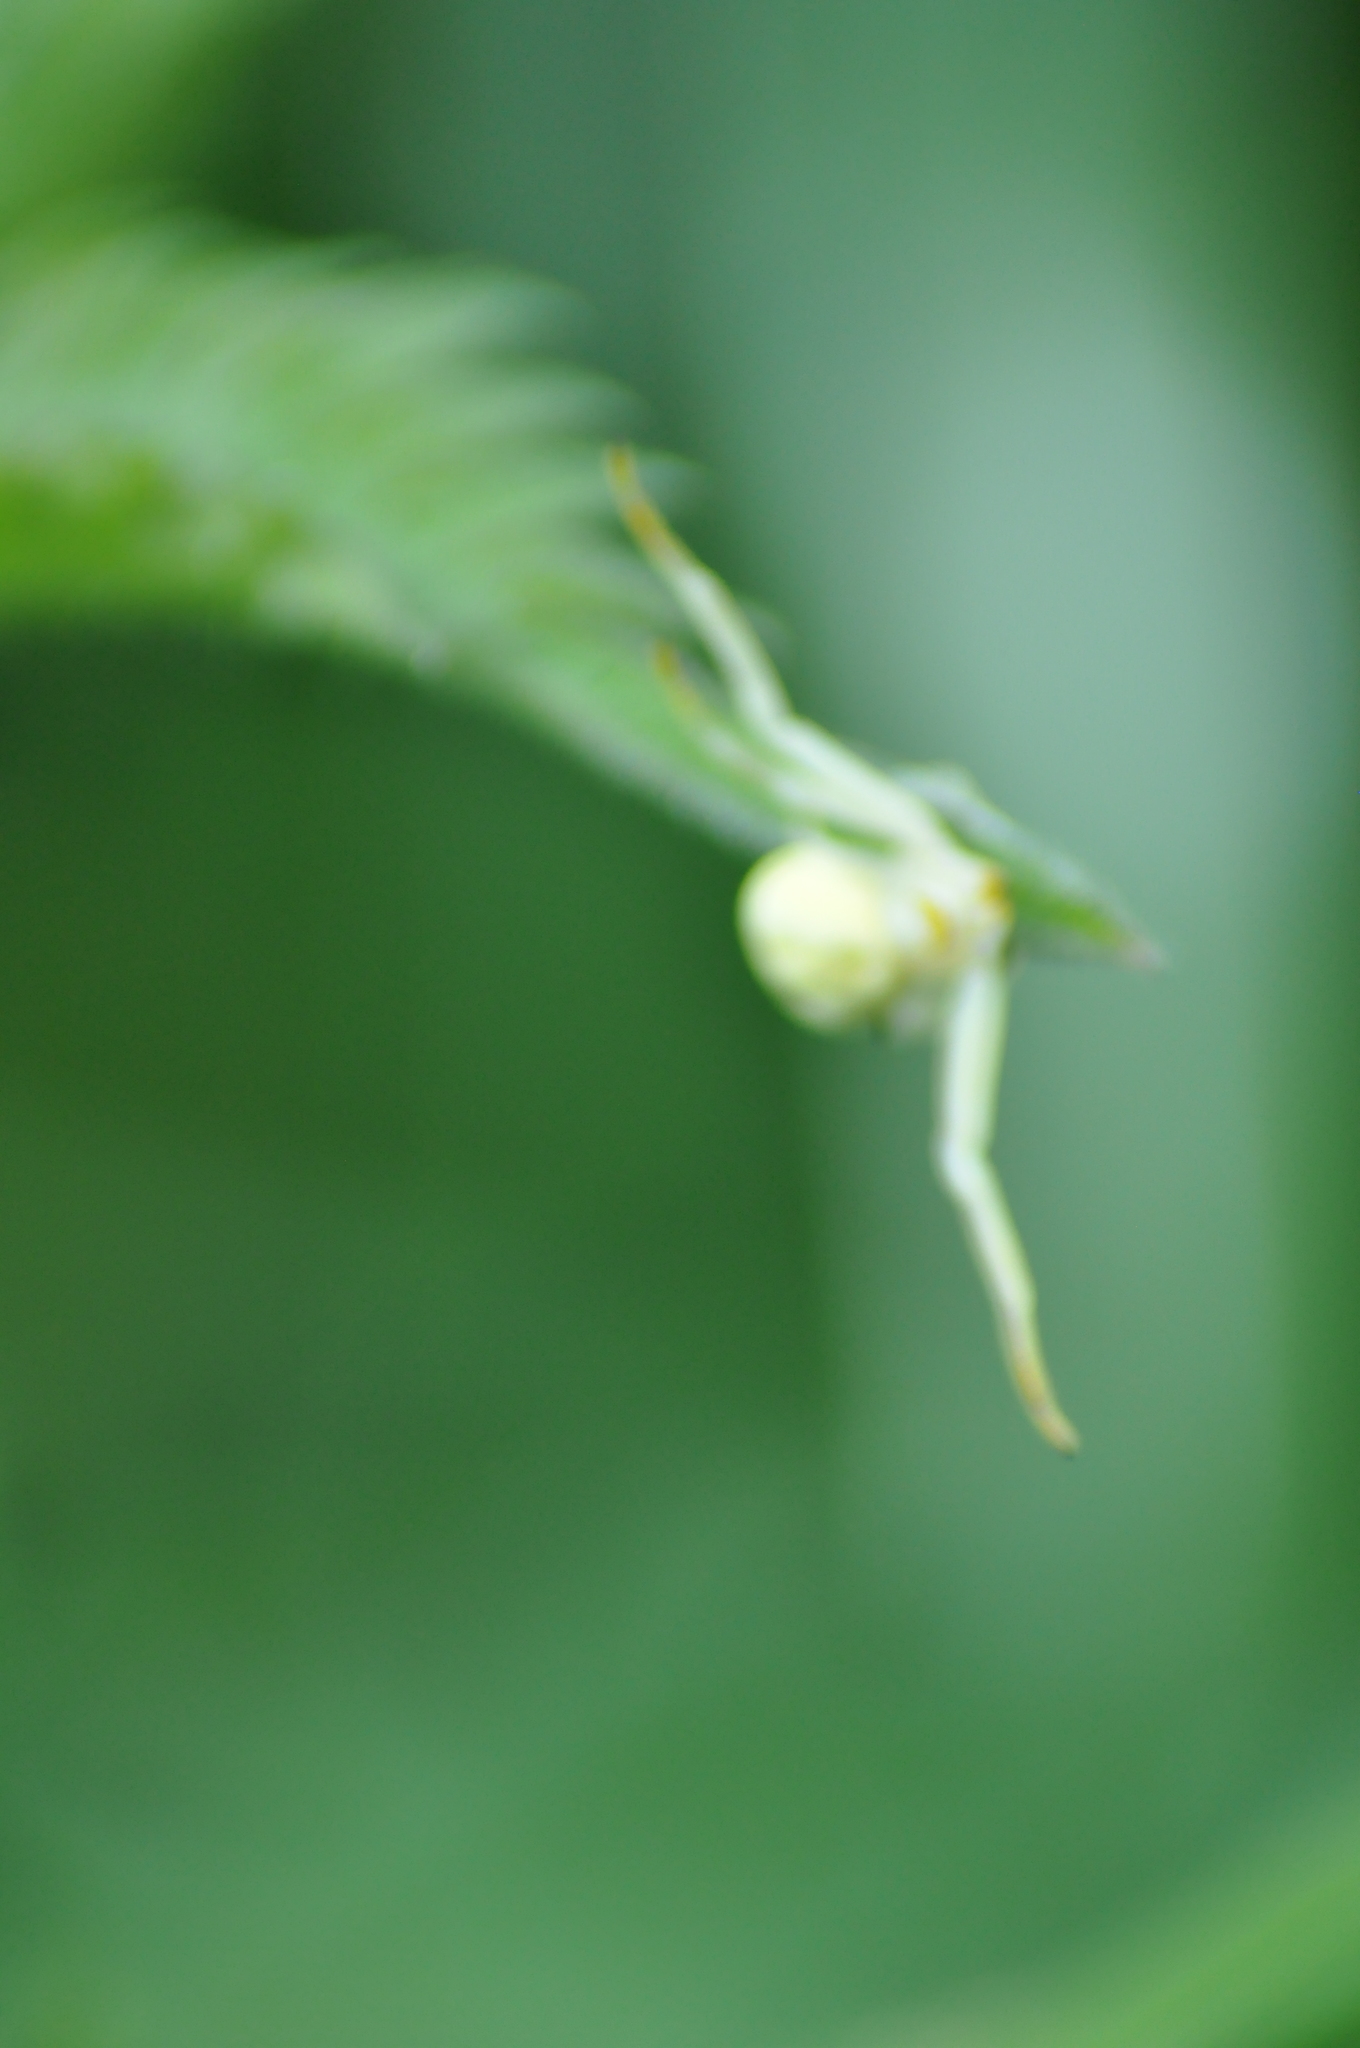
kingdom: Animalia
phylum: Arthropoda
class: Arachnida
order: Araneae
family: Thomisidae
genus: Misumena
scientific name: Misumena vatia
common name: Goldenrod crab spider
